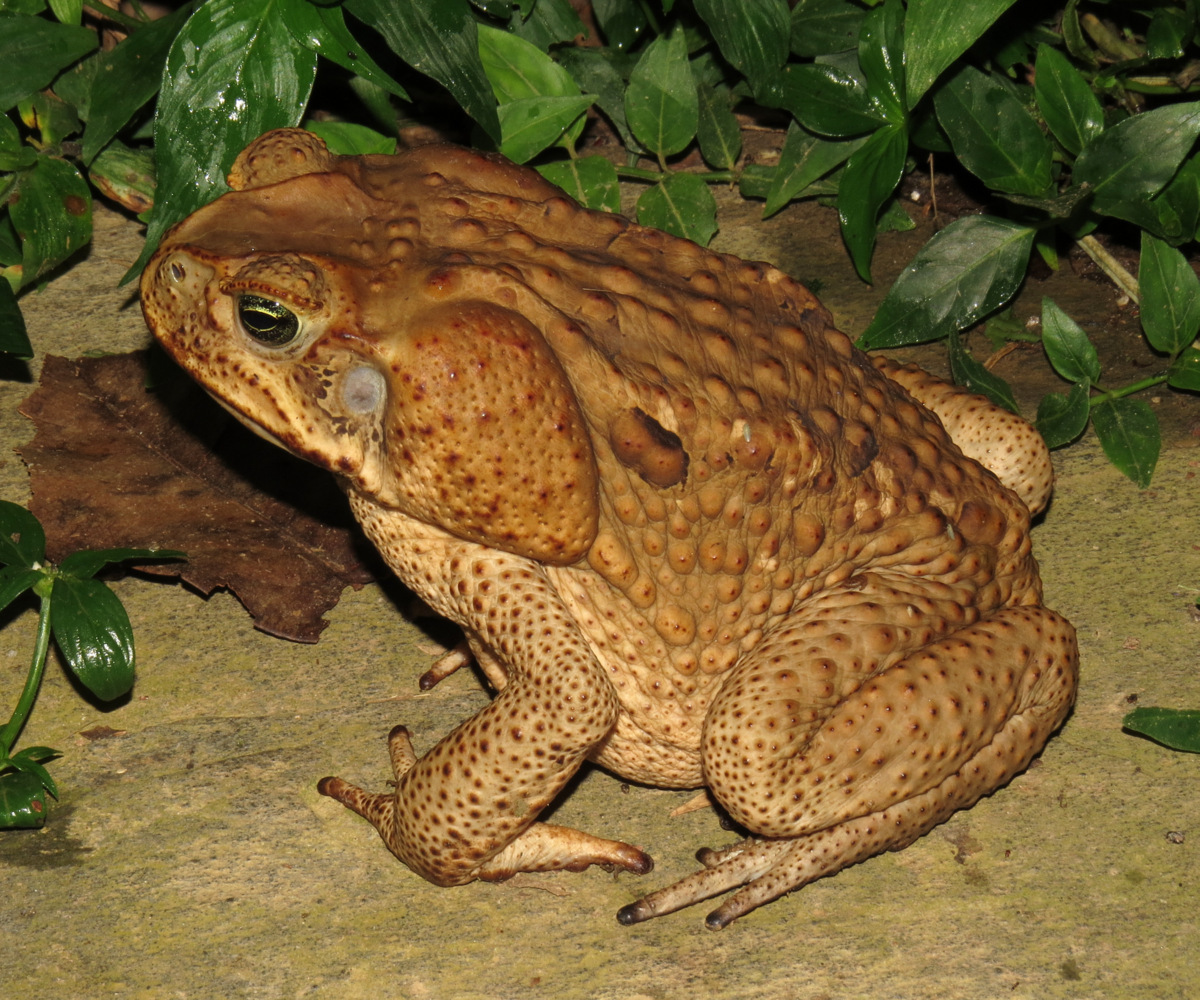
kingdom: Animalia
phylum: Chordata
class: Amphibia
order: Anura
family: Bufonidae
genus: Rhinella
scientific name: Rhinella marina
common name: Cane toad
